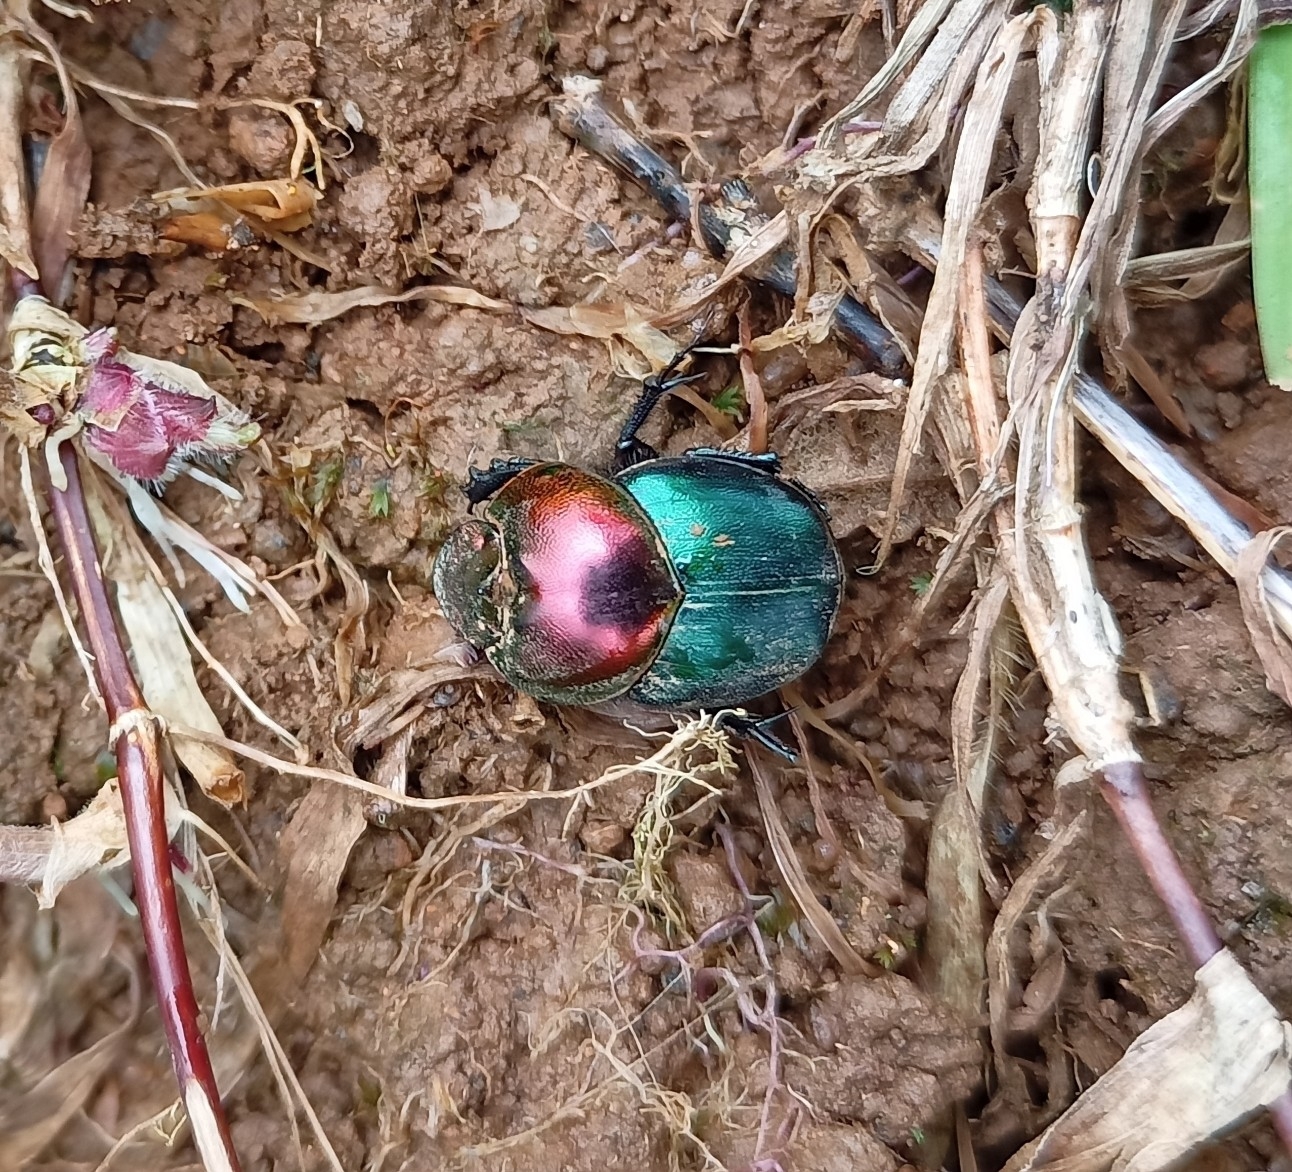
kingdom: Animalia
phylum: Arthropoda
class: Insecta
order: Coleoptera
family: Scarabaeidae
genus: Proagoderus
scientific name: Proagoderus
